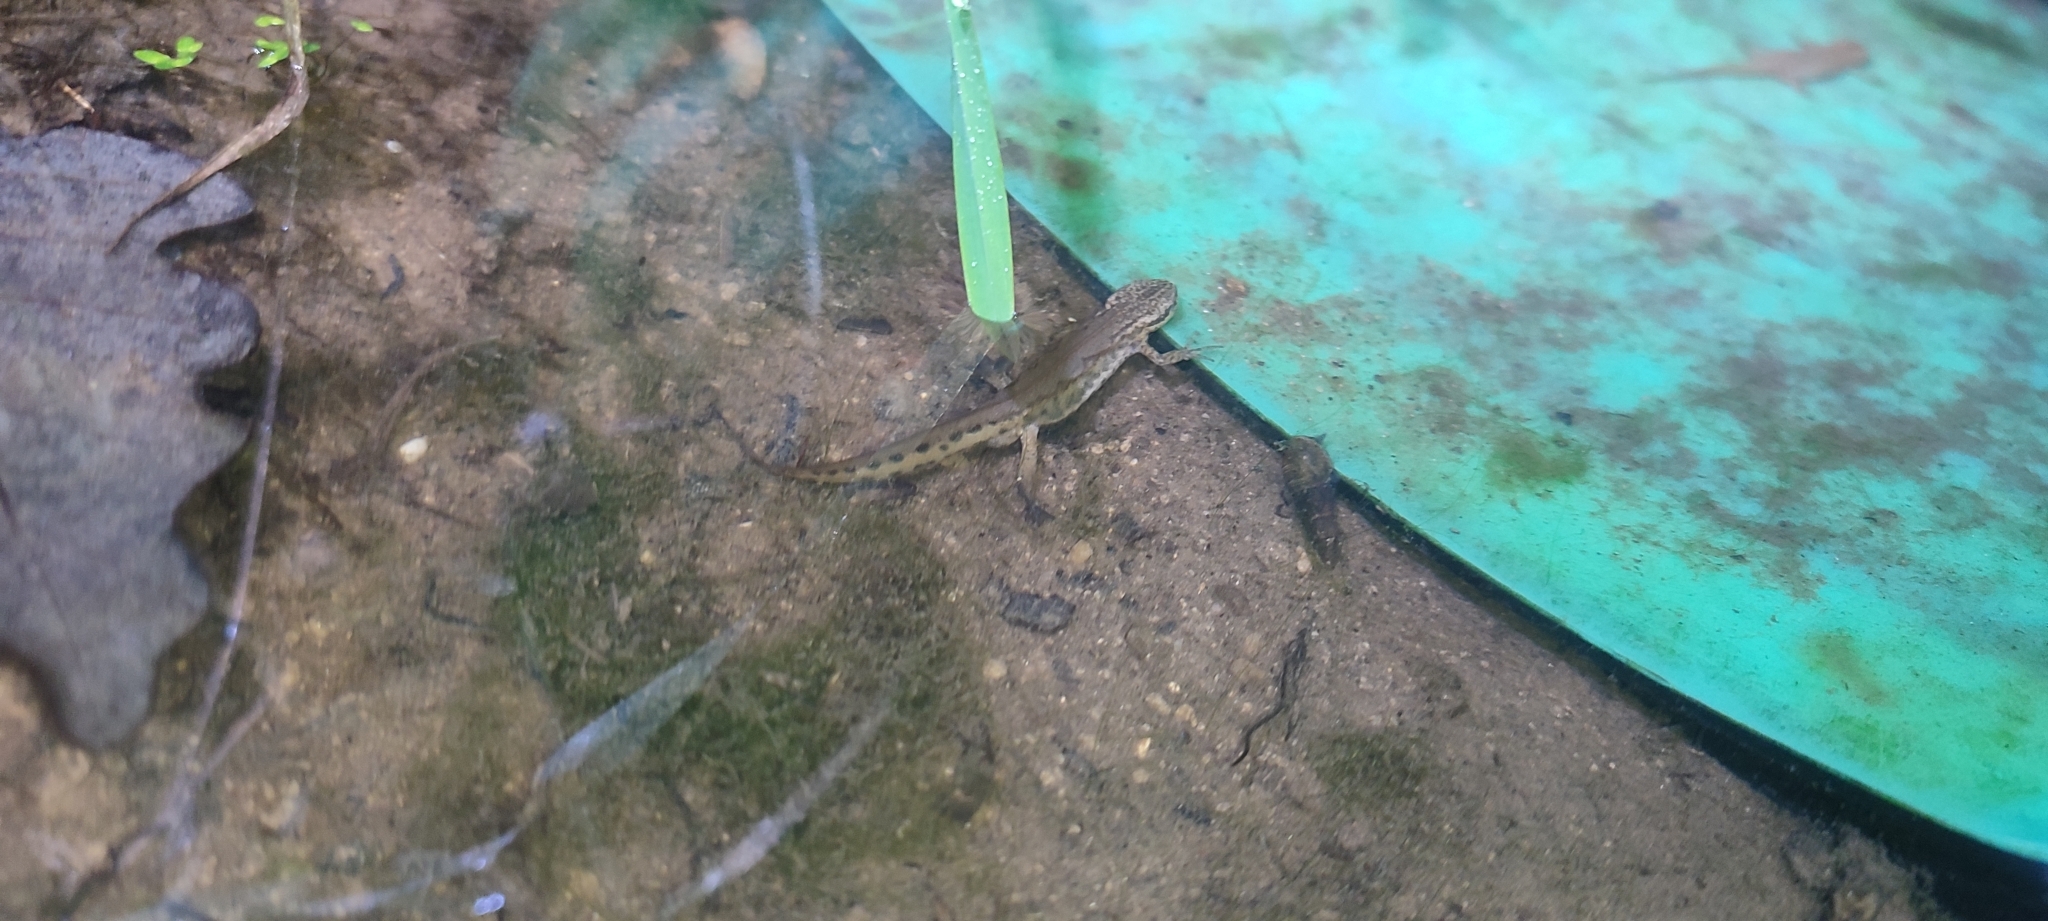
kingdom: Animalia
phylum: Chordata
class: Amphibia
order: Caudata
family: Salamandridae
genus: Lissotriton
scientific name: Lissotriton helveticus
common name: Palmate newt
